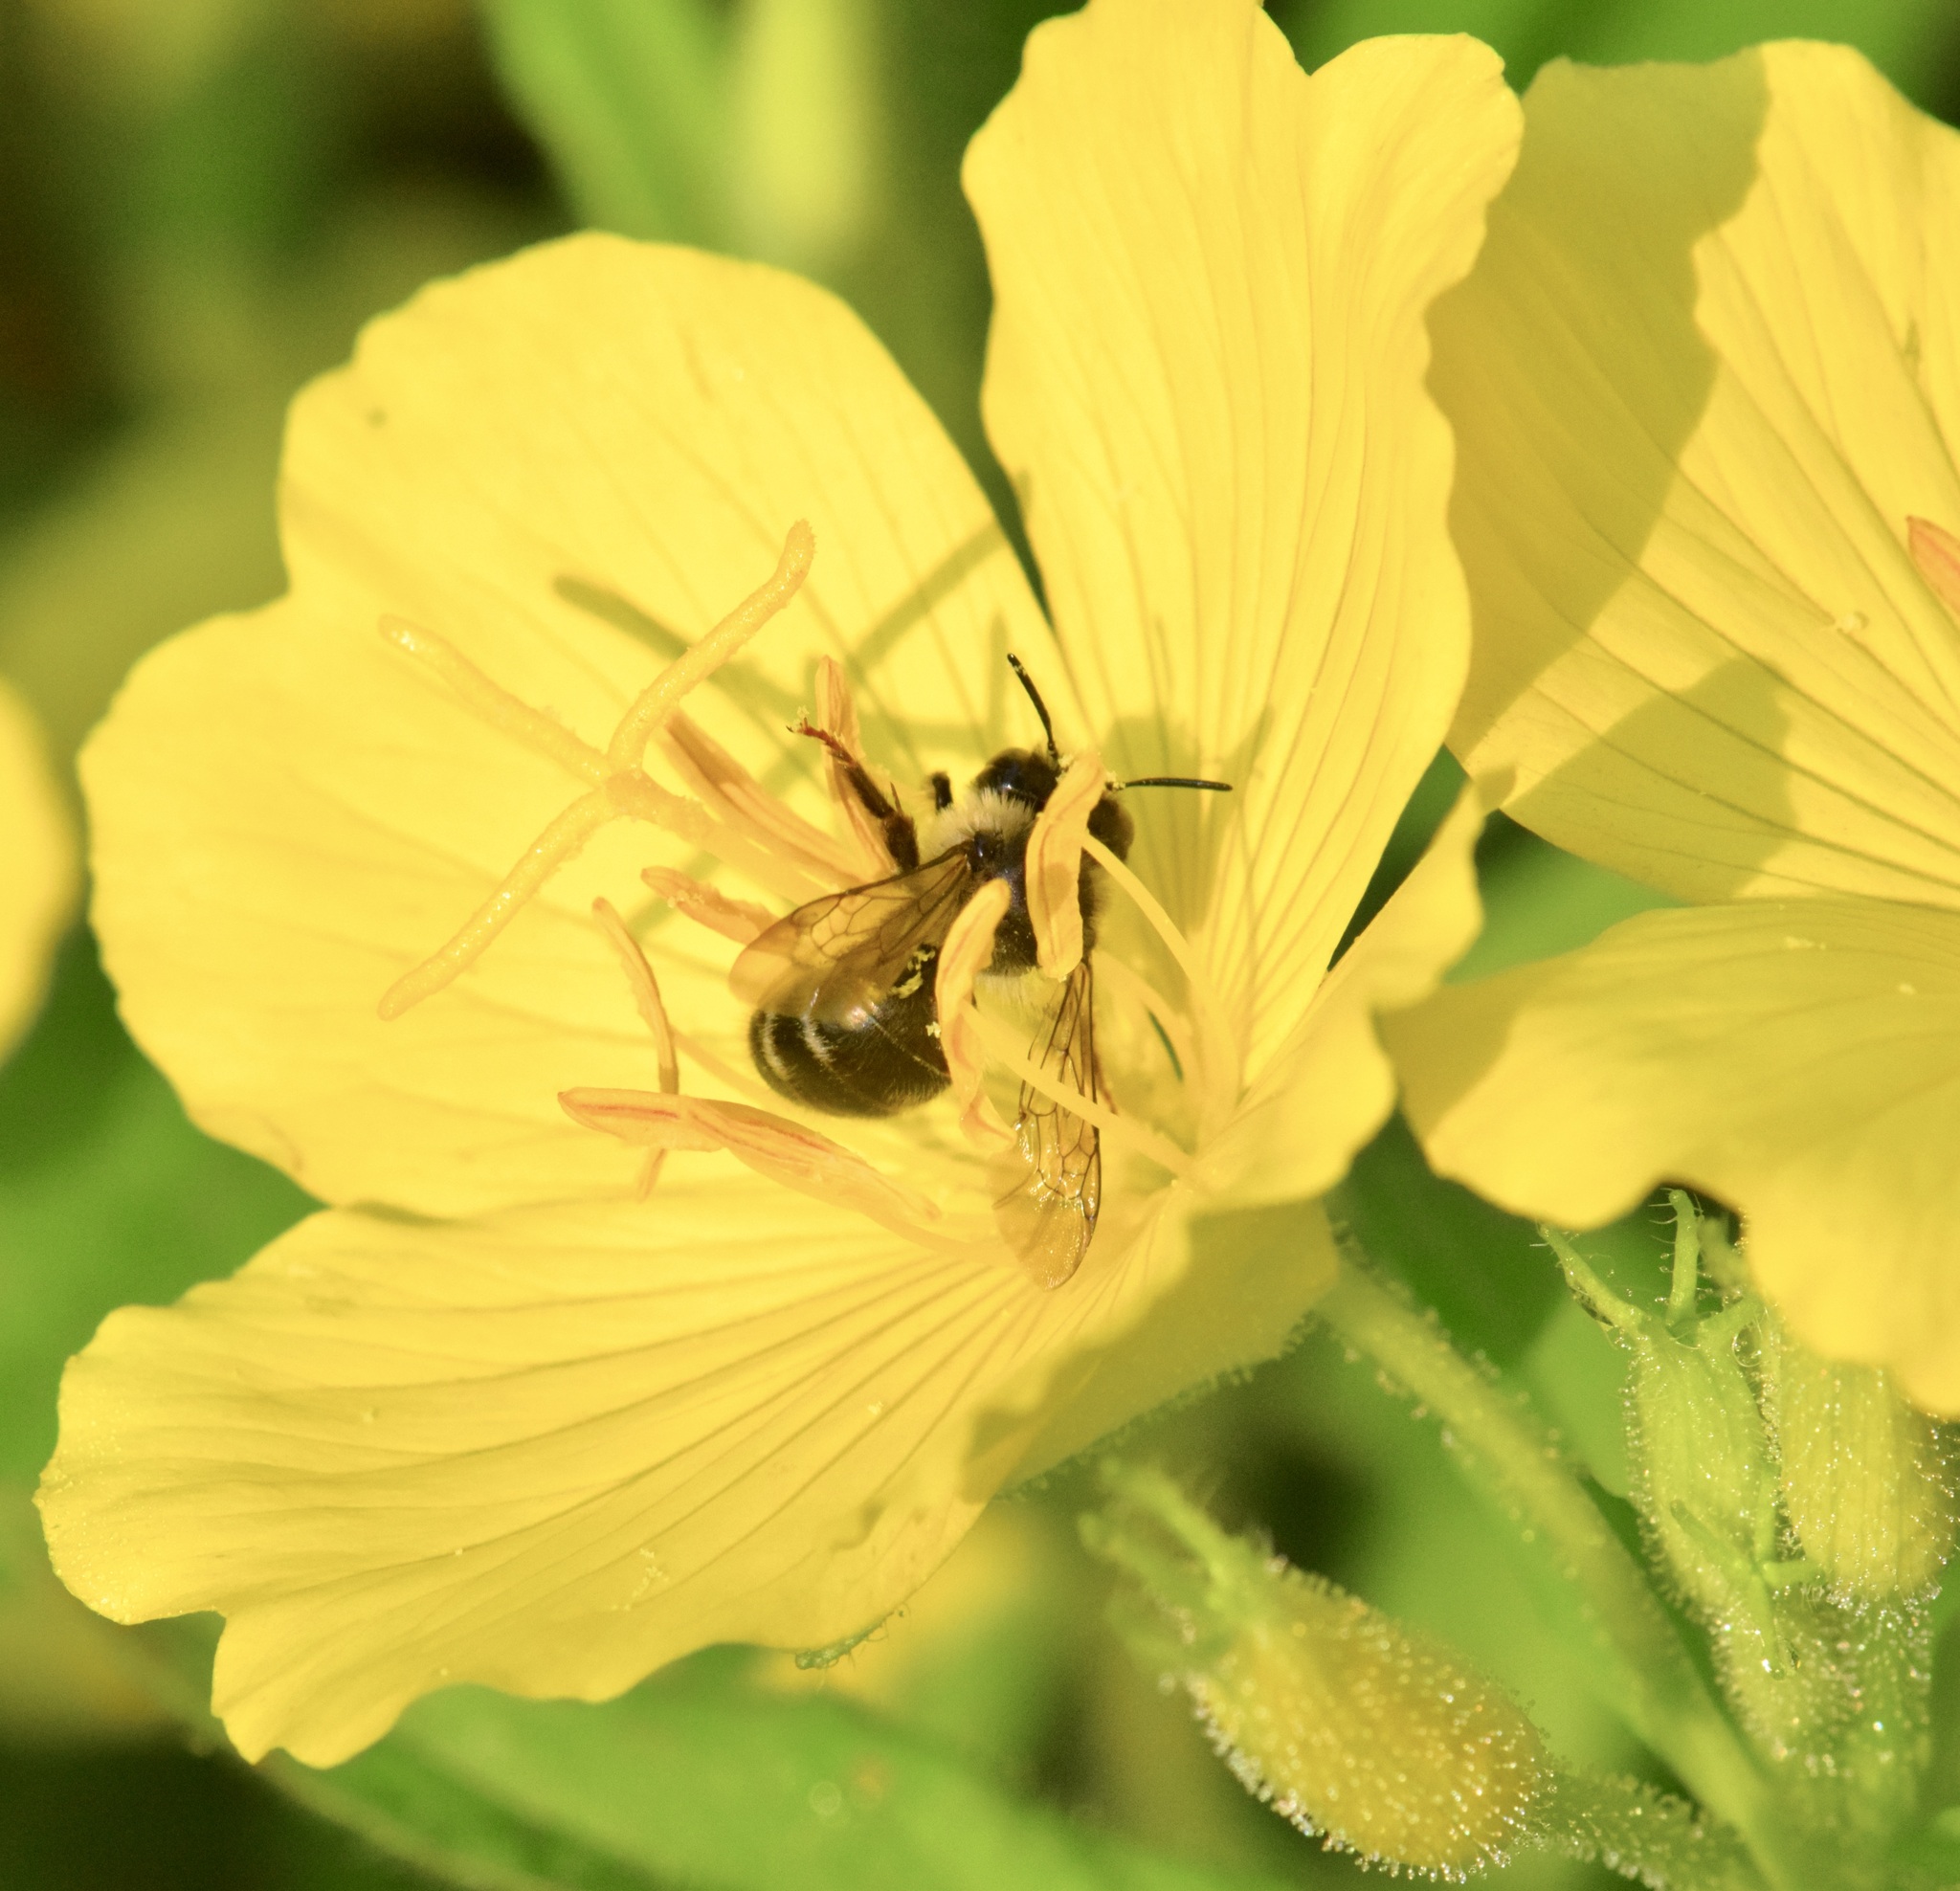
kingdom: Animalia
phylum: Arthropoda
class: Insecta
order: Hymenoptera
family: Apidae
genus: Anthophora
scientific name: Anthophora terminalis
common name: Orange-tipped wood-digger bee
